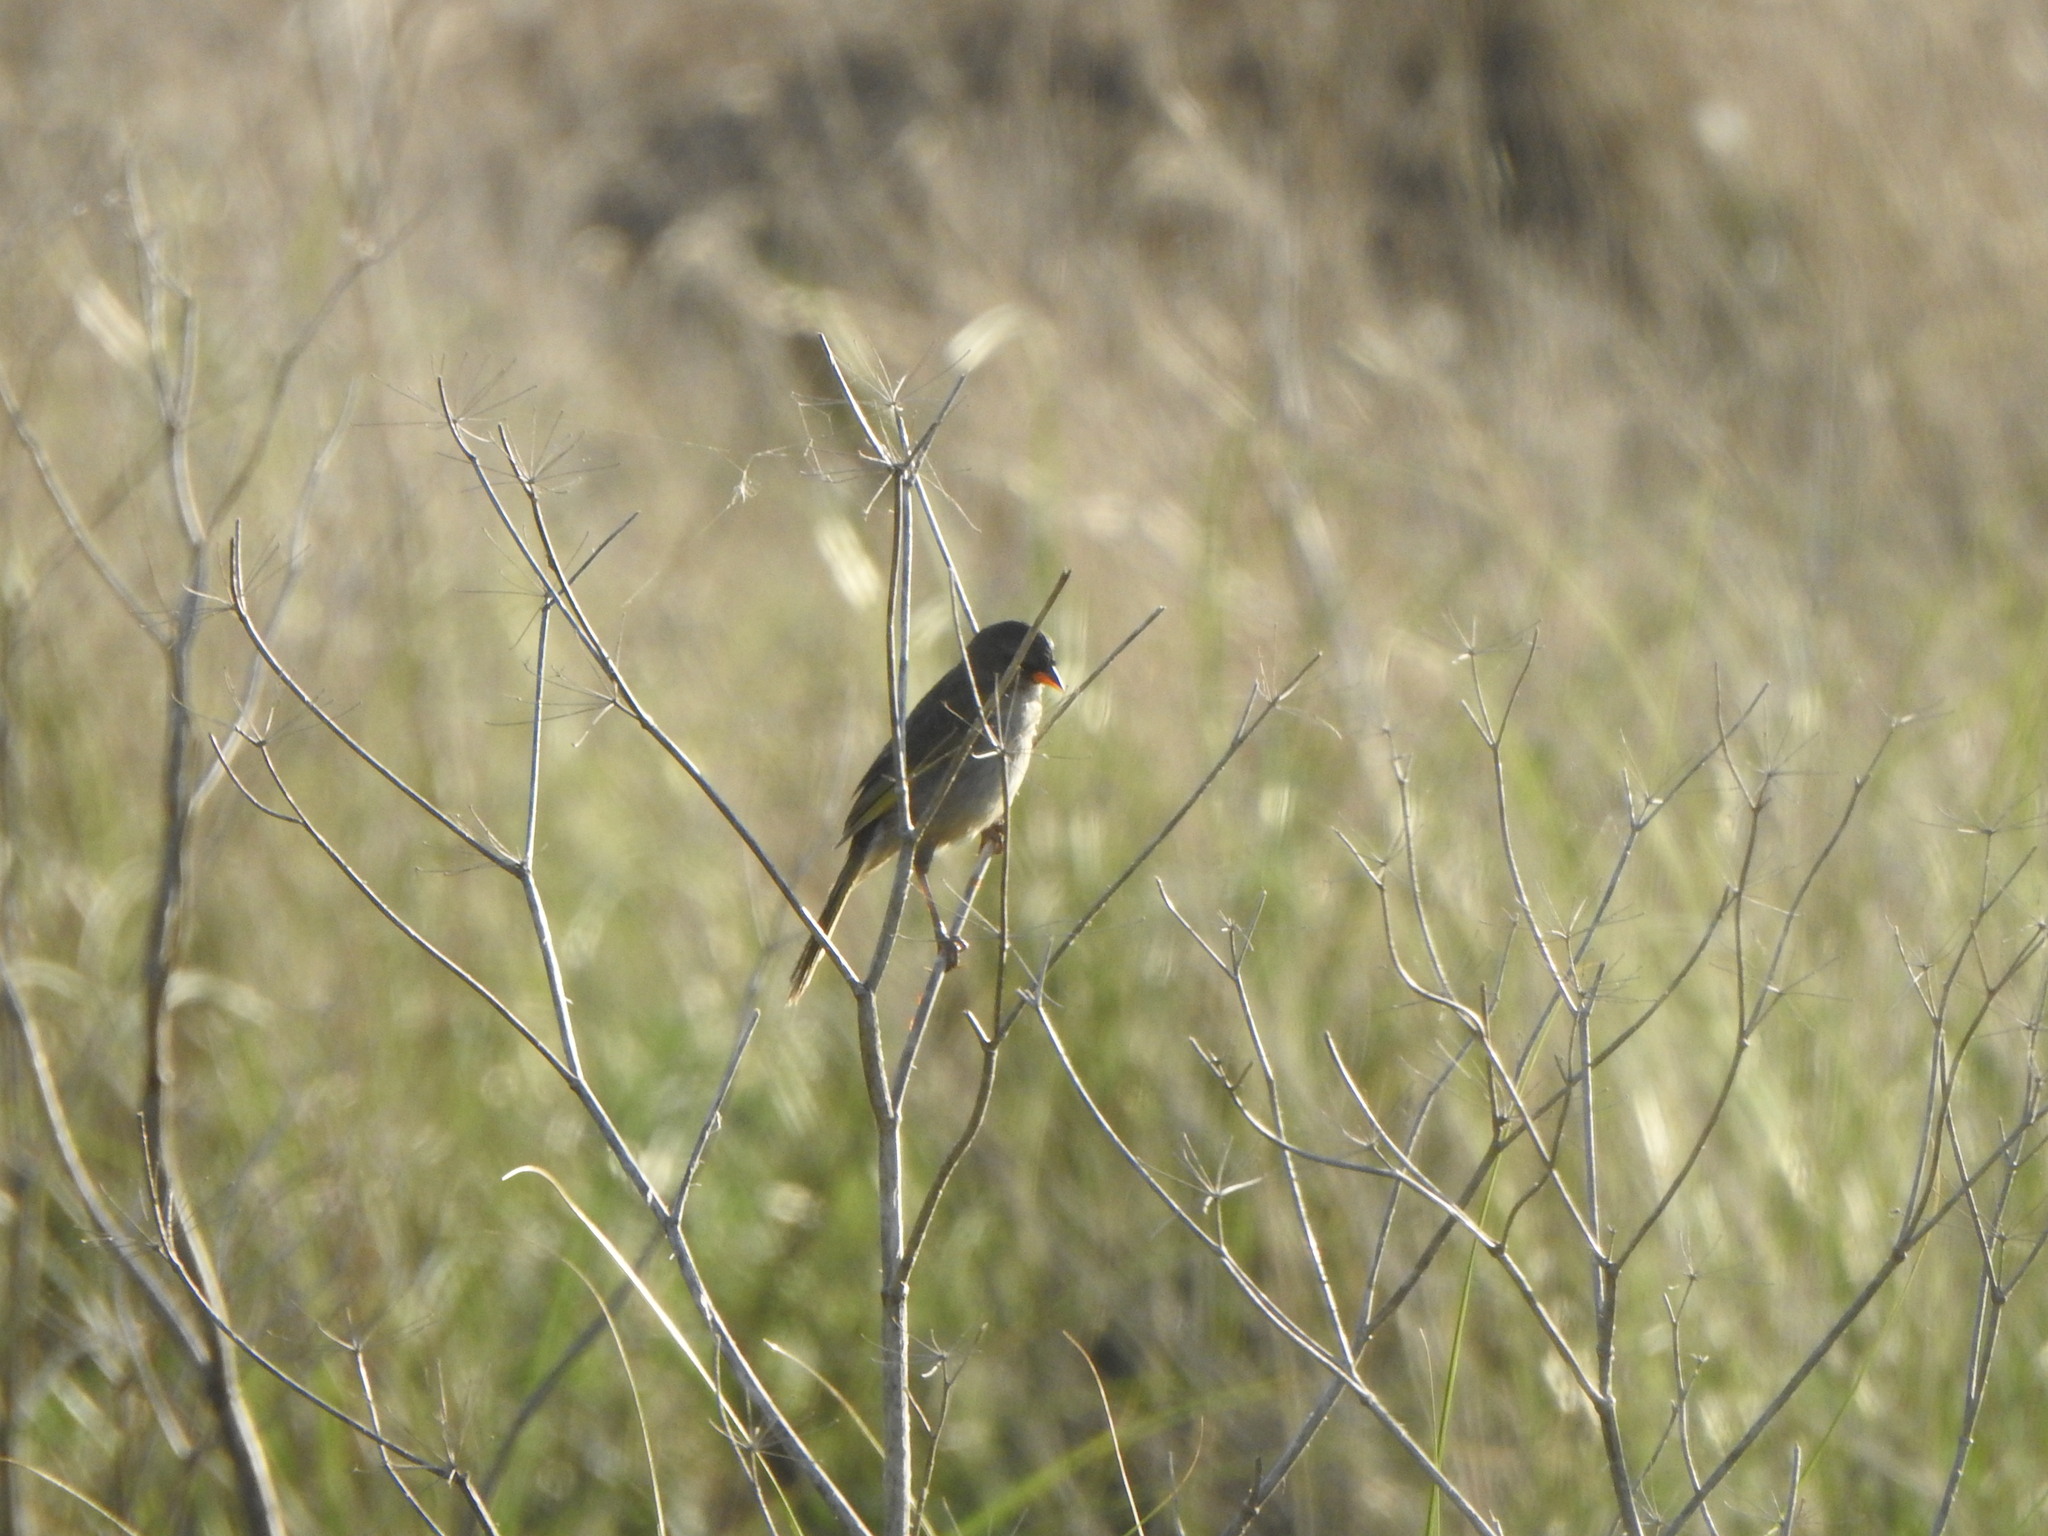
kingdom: Animalia
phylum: Chordata
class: Aves
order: Passeriformes
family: Thraupidae
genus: Embernagra
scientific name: Embernagra platensis
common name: Pampa finch
